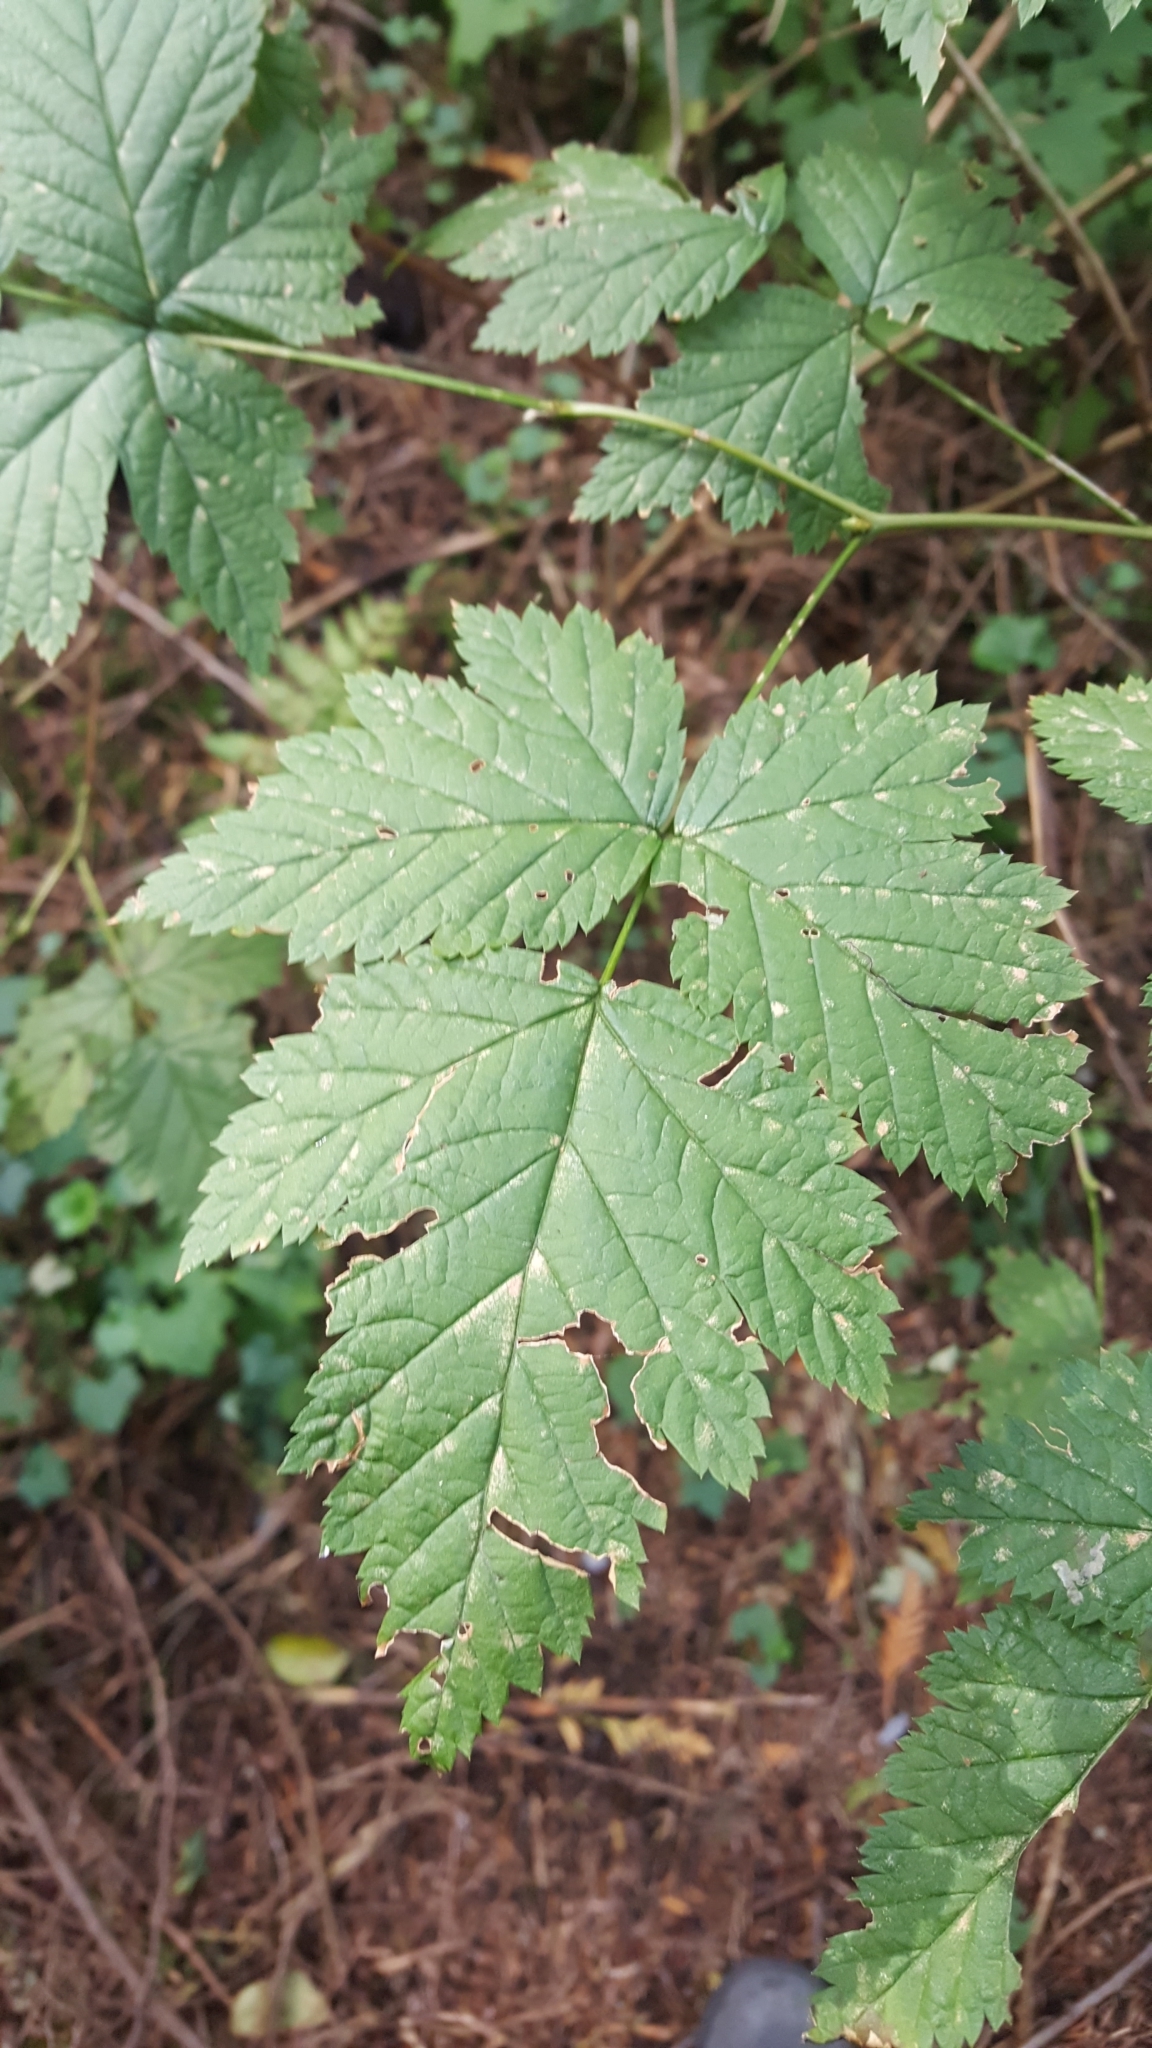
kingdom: Plantae
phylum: Tracheophyta
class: Magnoliopsida
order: Rosales
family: Rosaceae
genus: Rubus
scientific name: Rubus spectabilis
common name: Salmonberry
